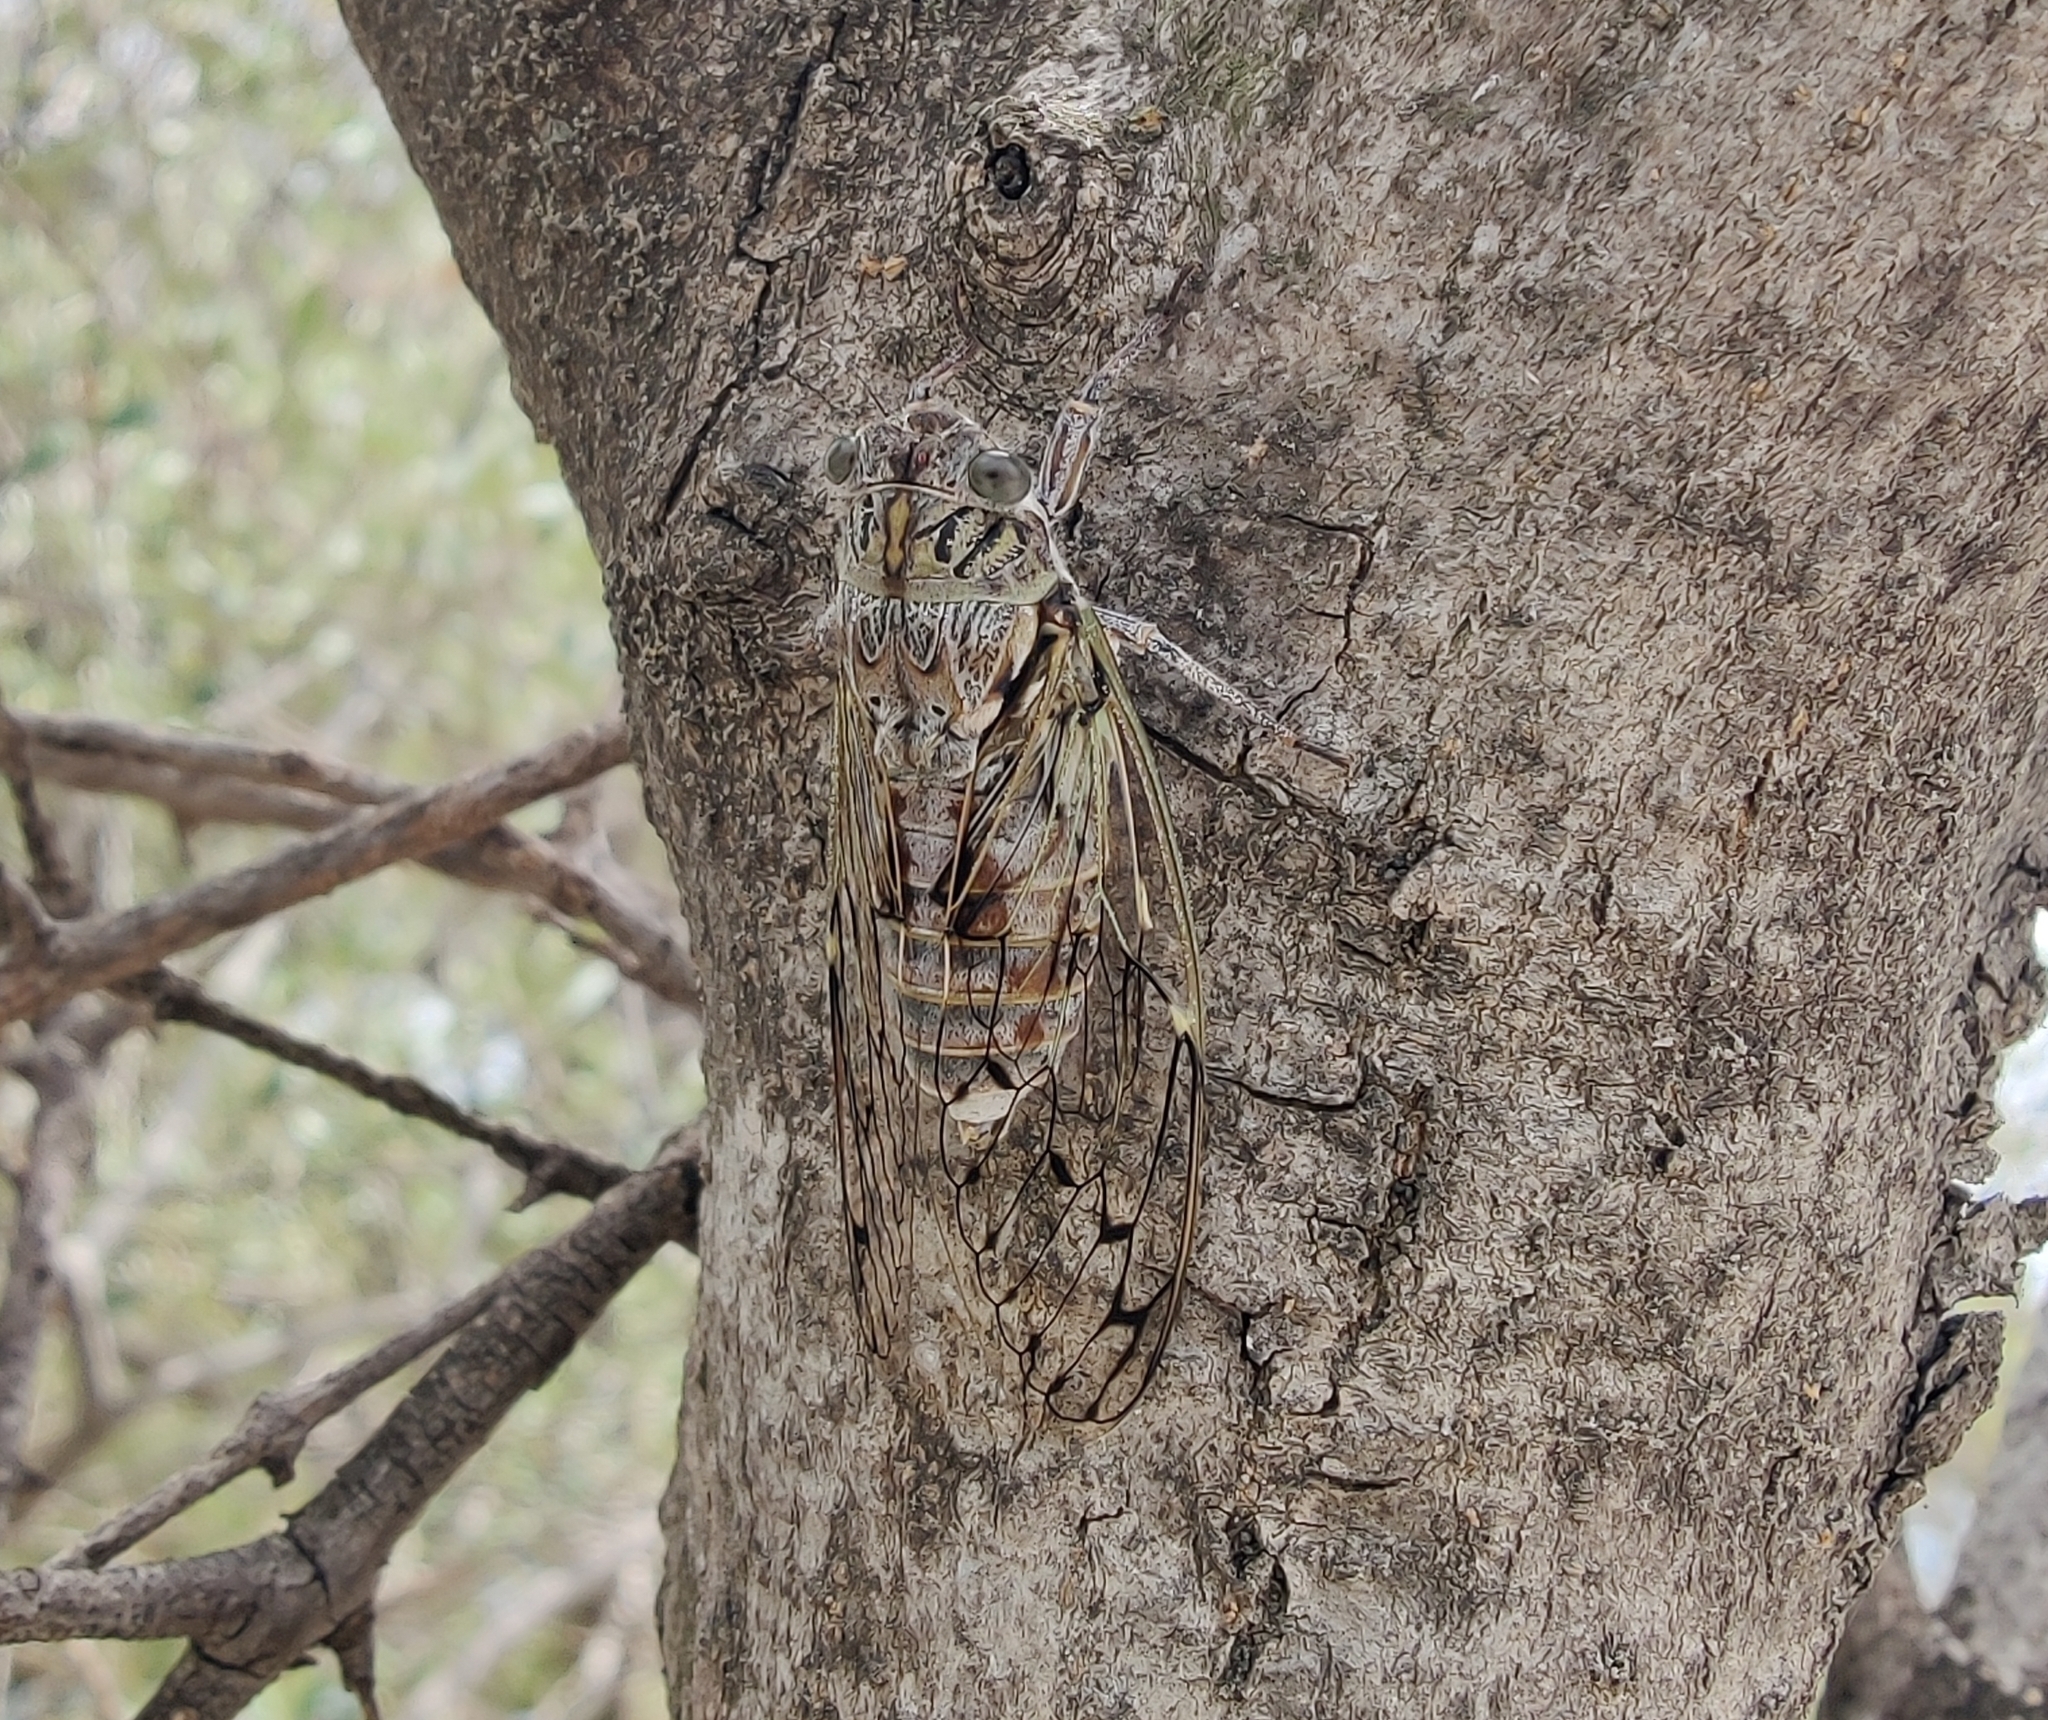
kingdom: Animalia
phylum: Arthropoda
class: Insecta
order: Hemiptera
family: Cicadidae
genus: Cicada
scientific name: Cicada orni
